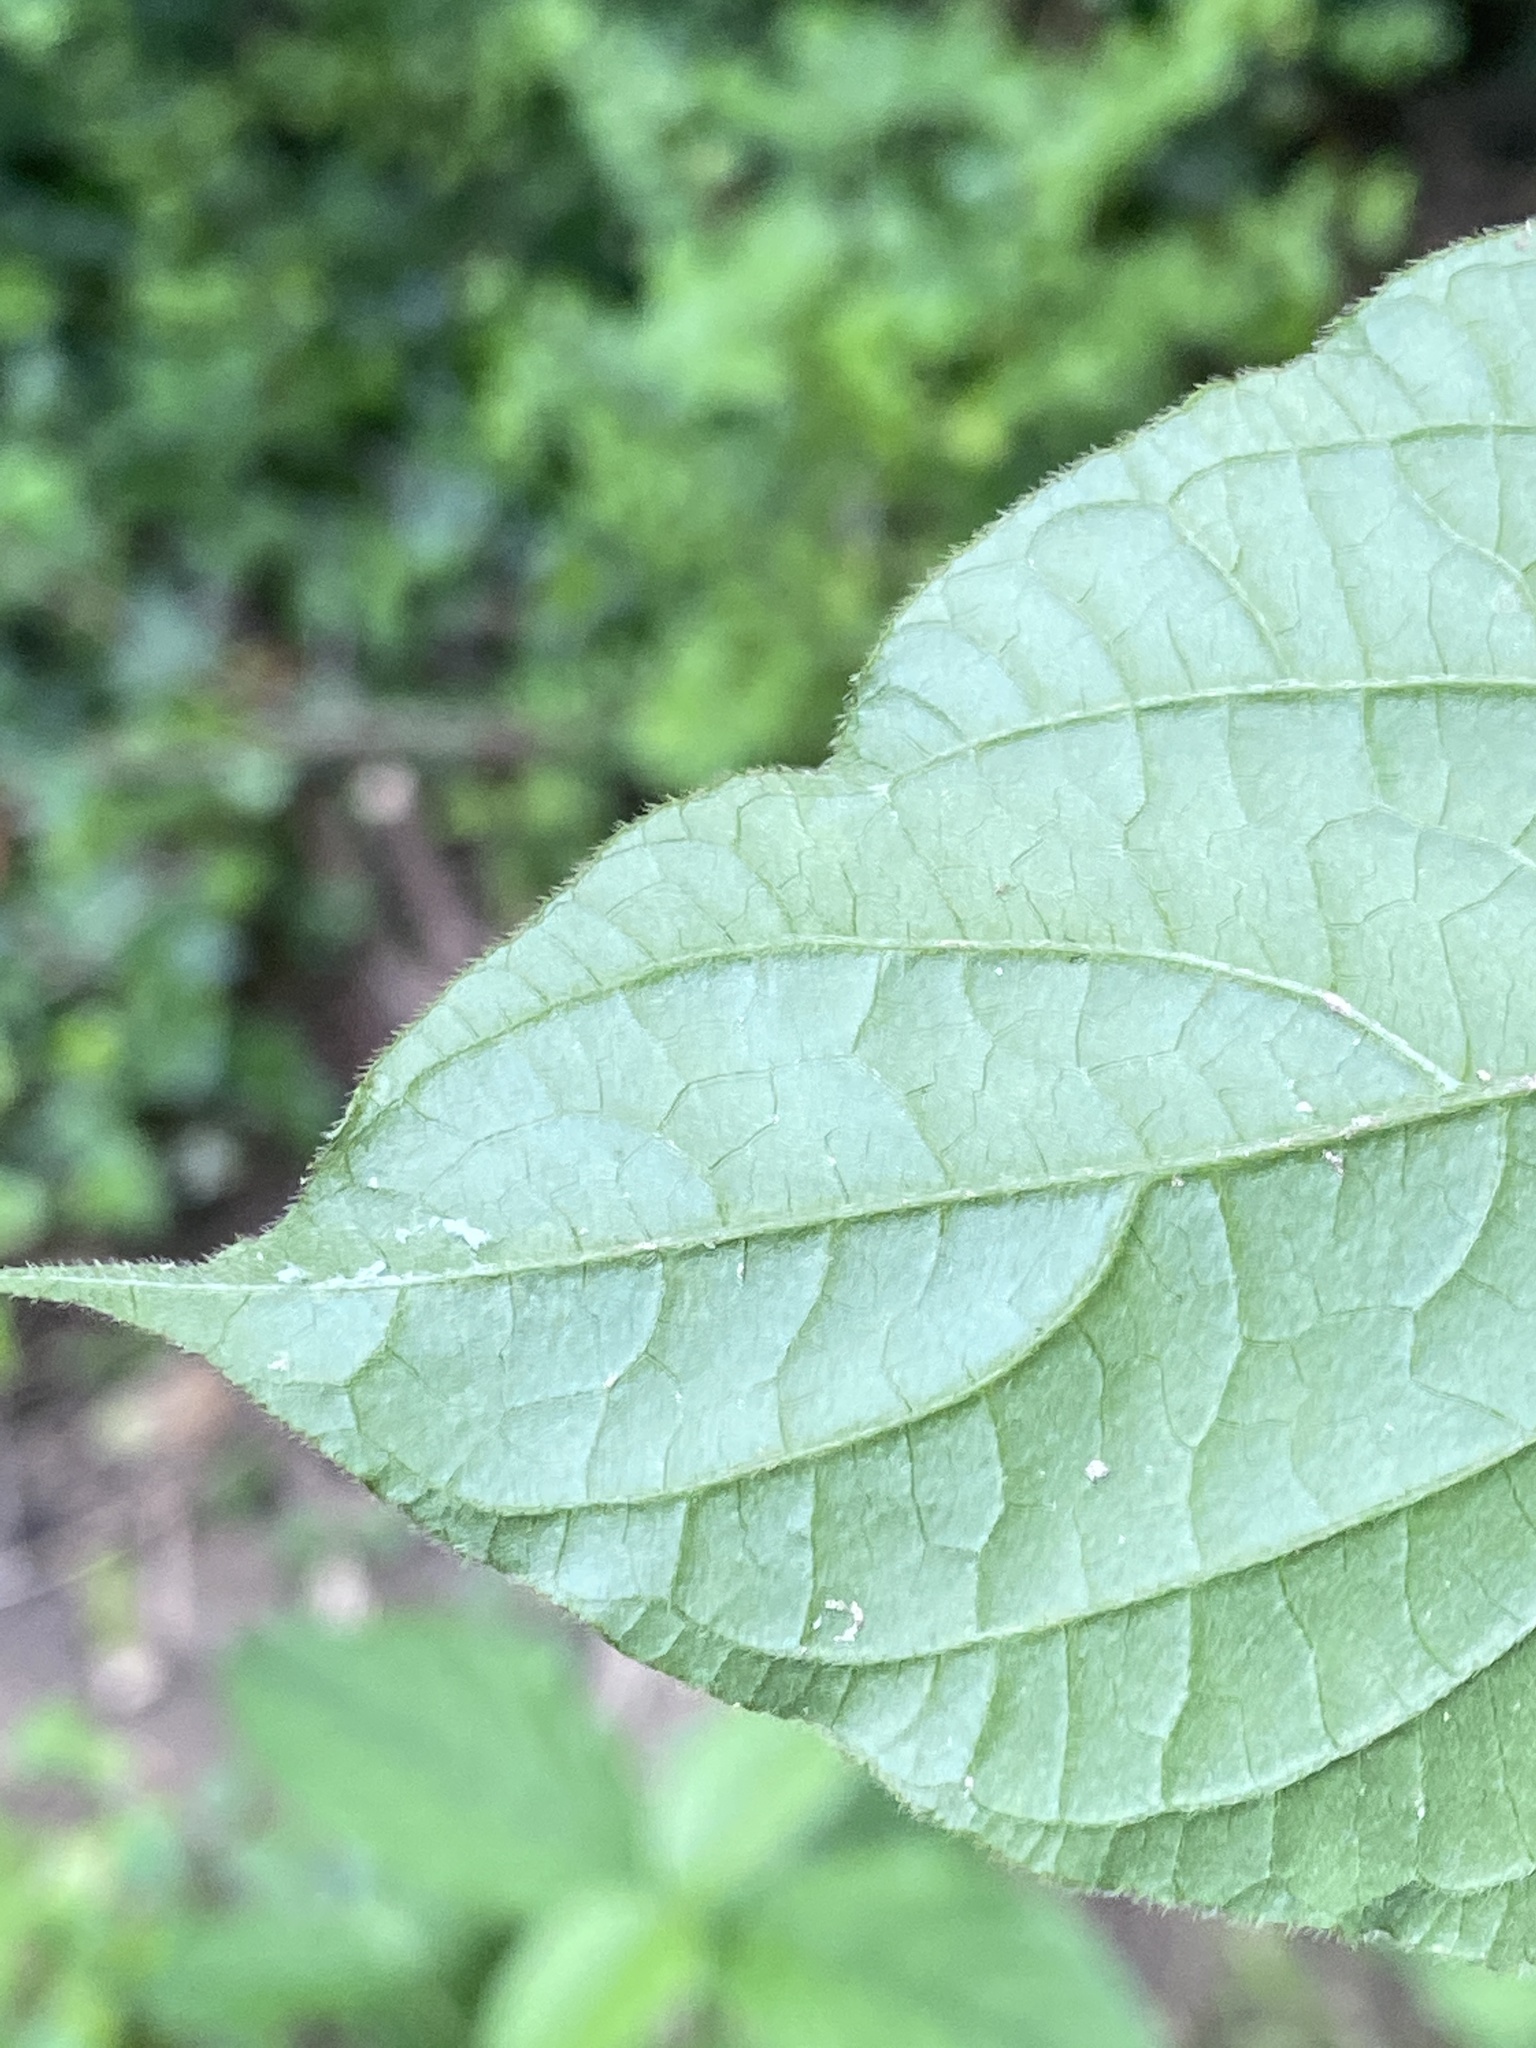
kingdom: Plantae
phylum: Tracheophyta
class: Magnoliopsida
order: Caryophyllales
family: Amaranthaceae
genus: Achyranthes
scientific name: Achyranthes bidentata
